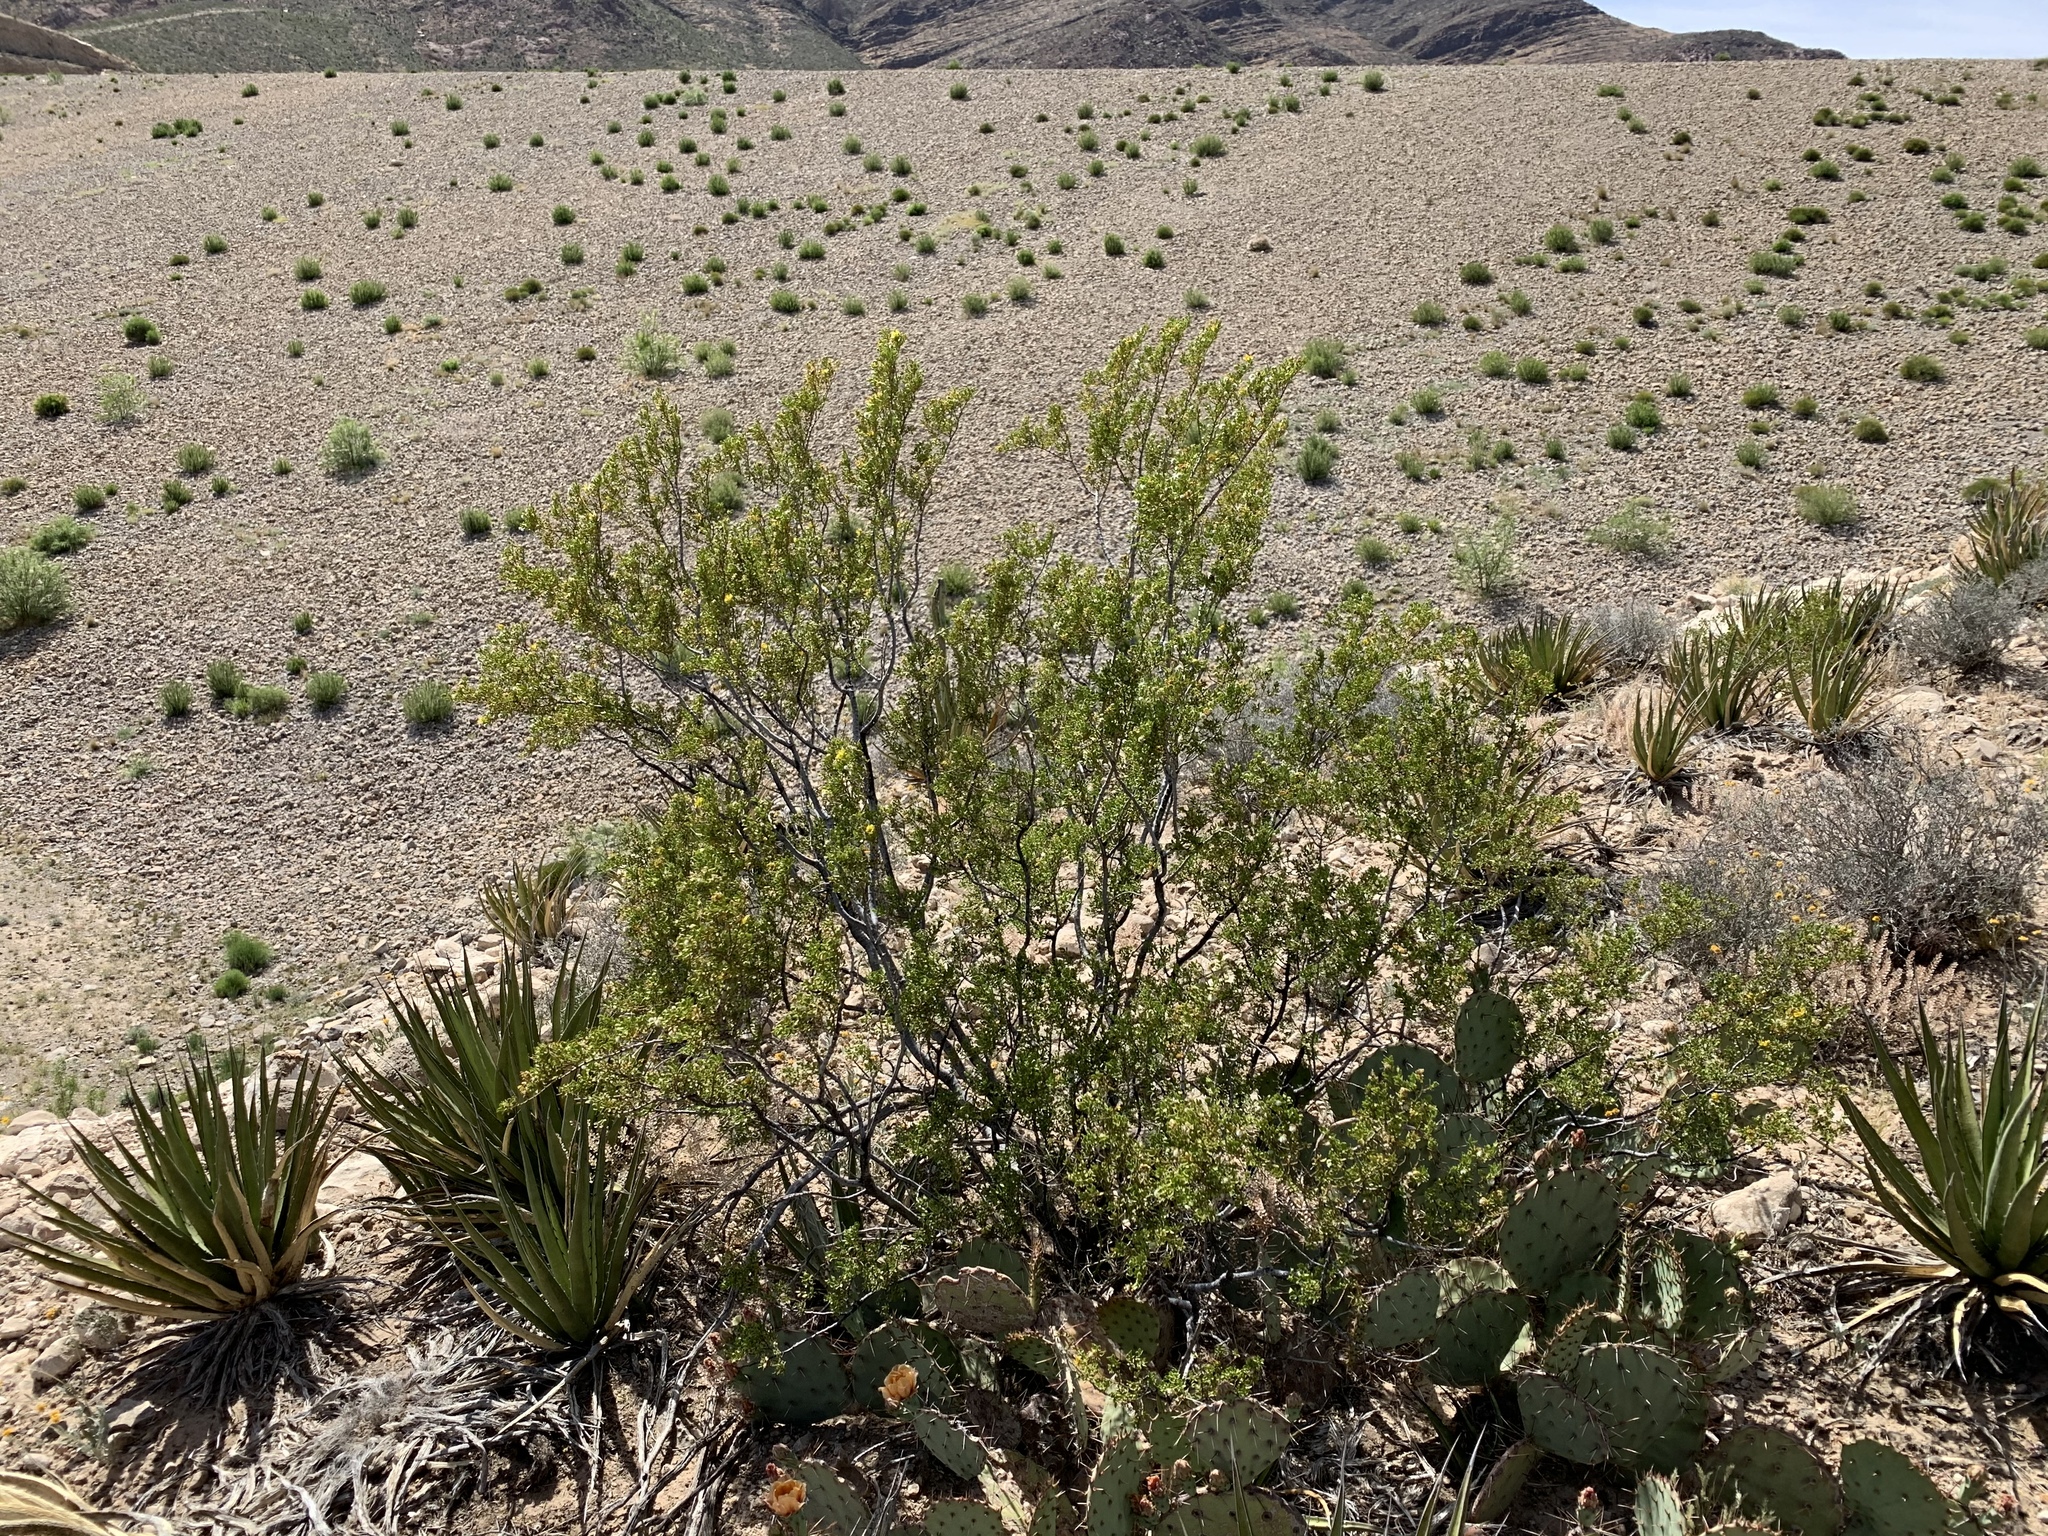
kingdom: Plantae
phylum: Tracheophyta
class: Magnoliopsida
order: Zygophyllales
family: Zygophyllaceae
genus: Larrea
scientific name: Larrea tridentata
